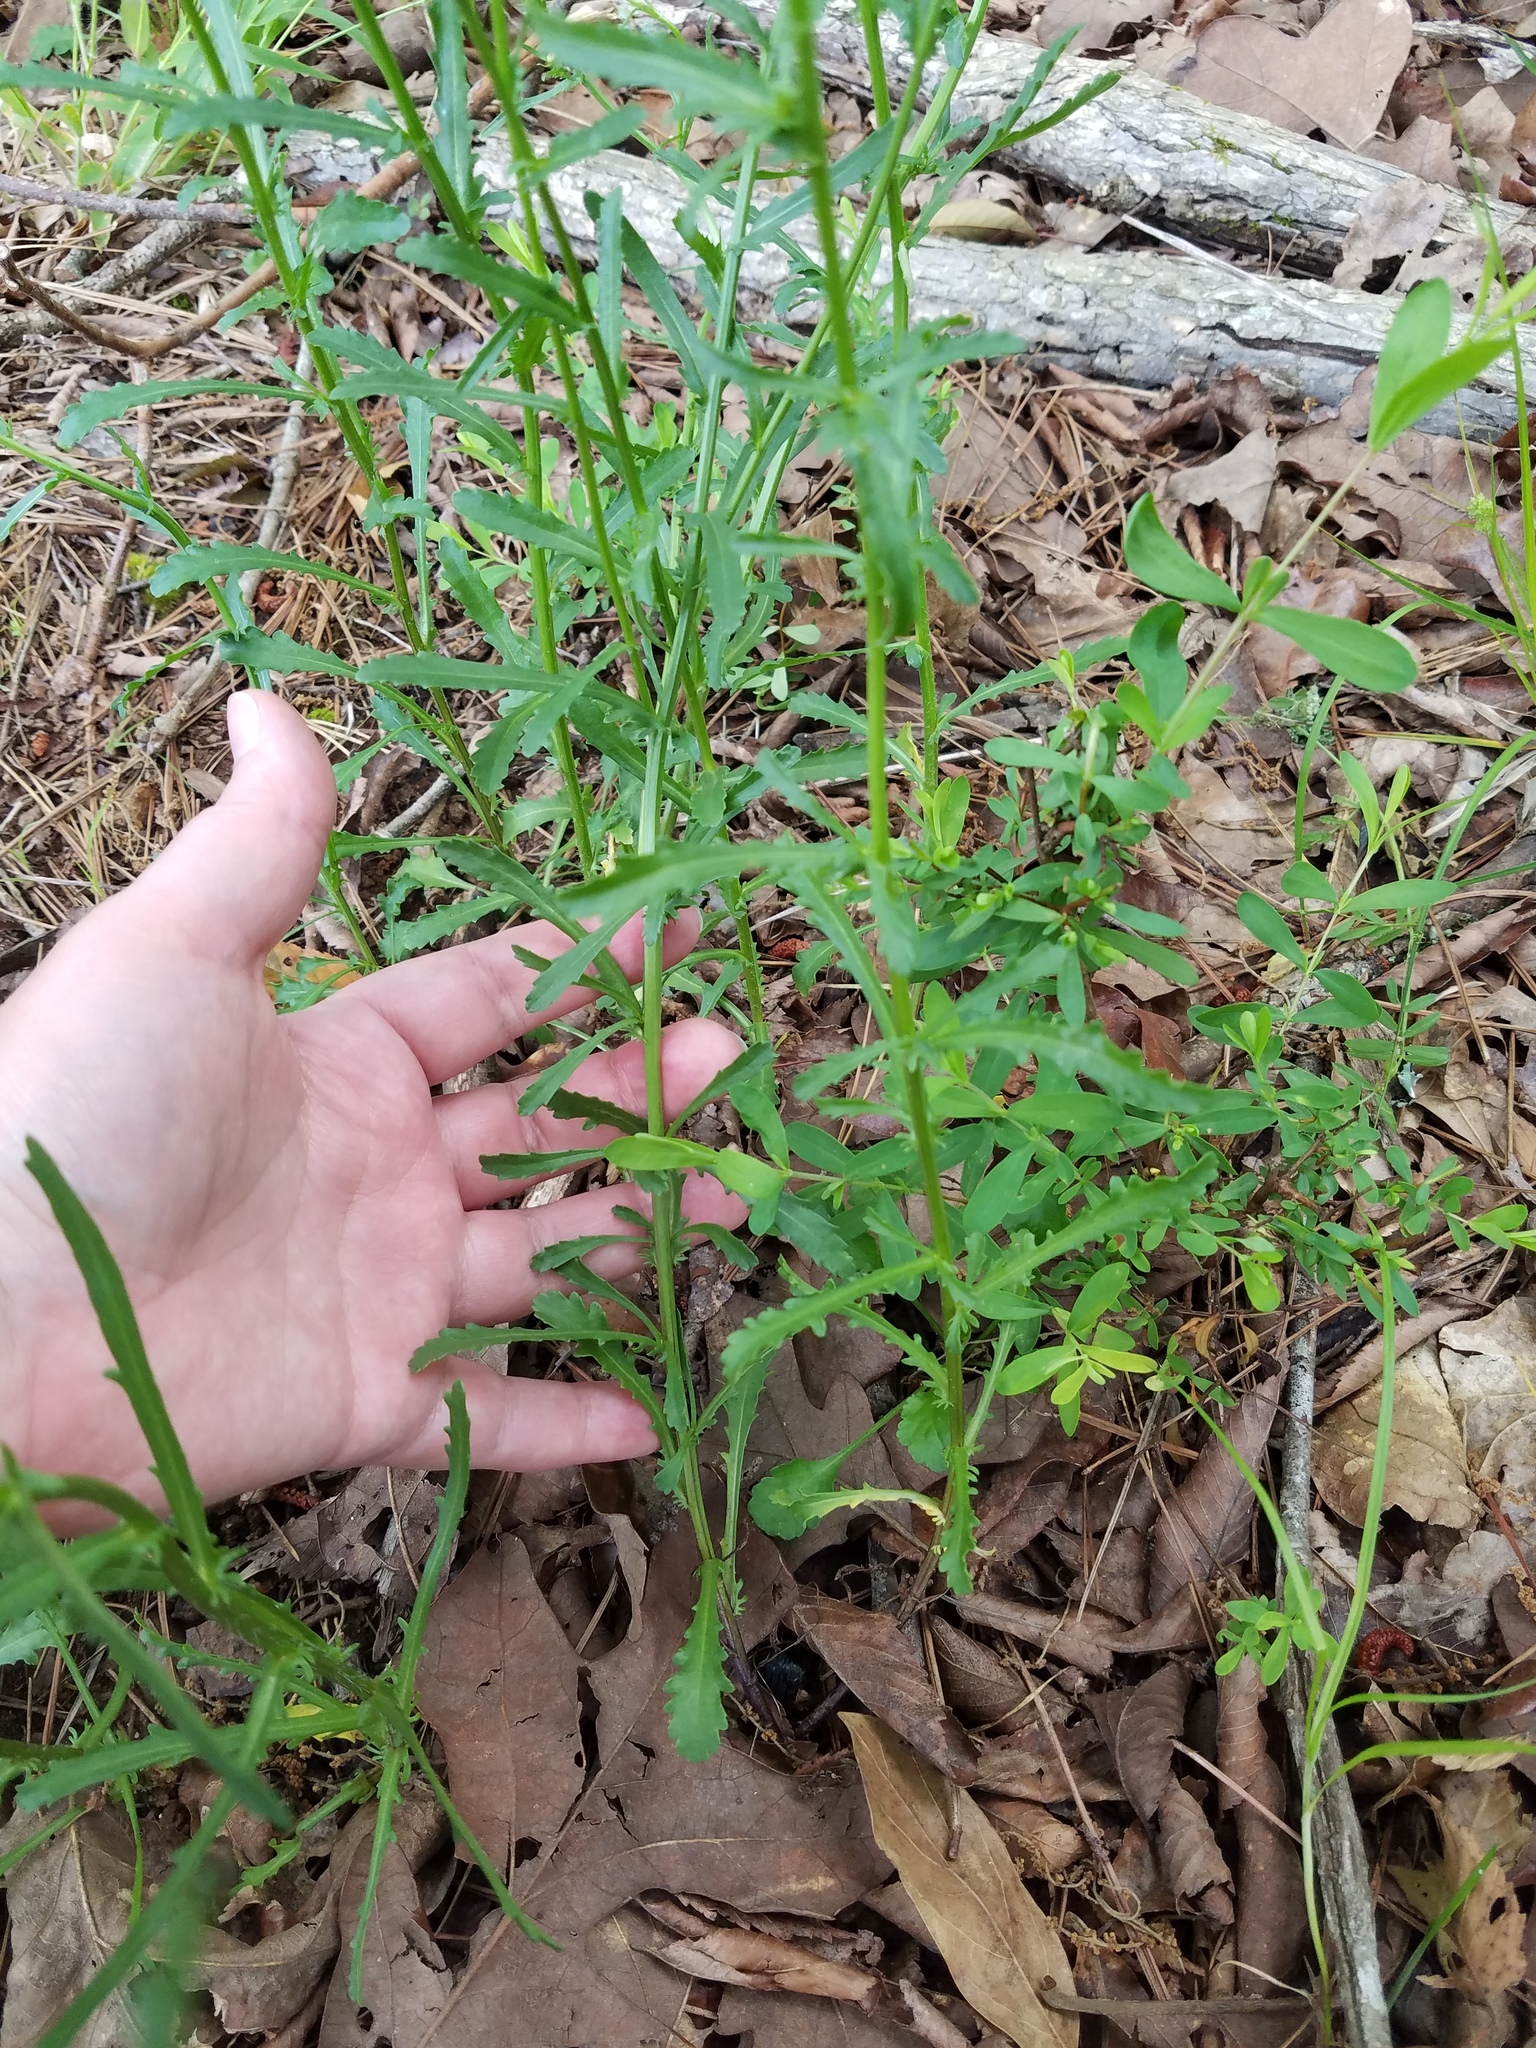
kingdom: Plantae
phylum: Tracheophyta
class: Magnoliopsida
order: Asterales
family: Asteraceae
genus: Leucanthemum
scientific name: Leucanthemum vulgare
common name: Oxeye daisy
